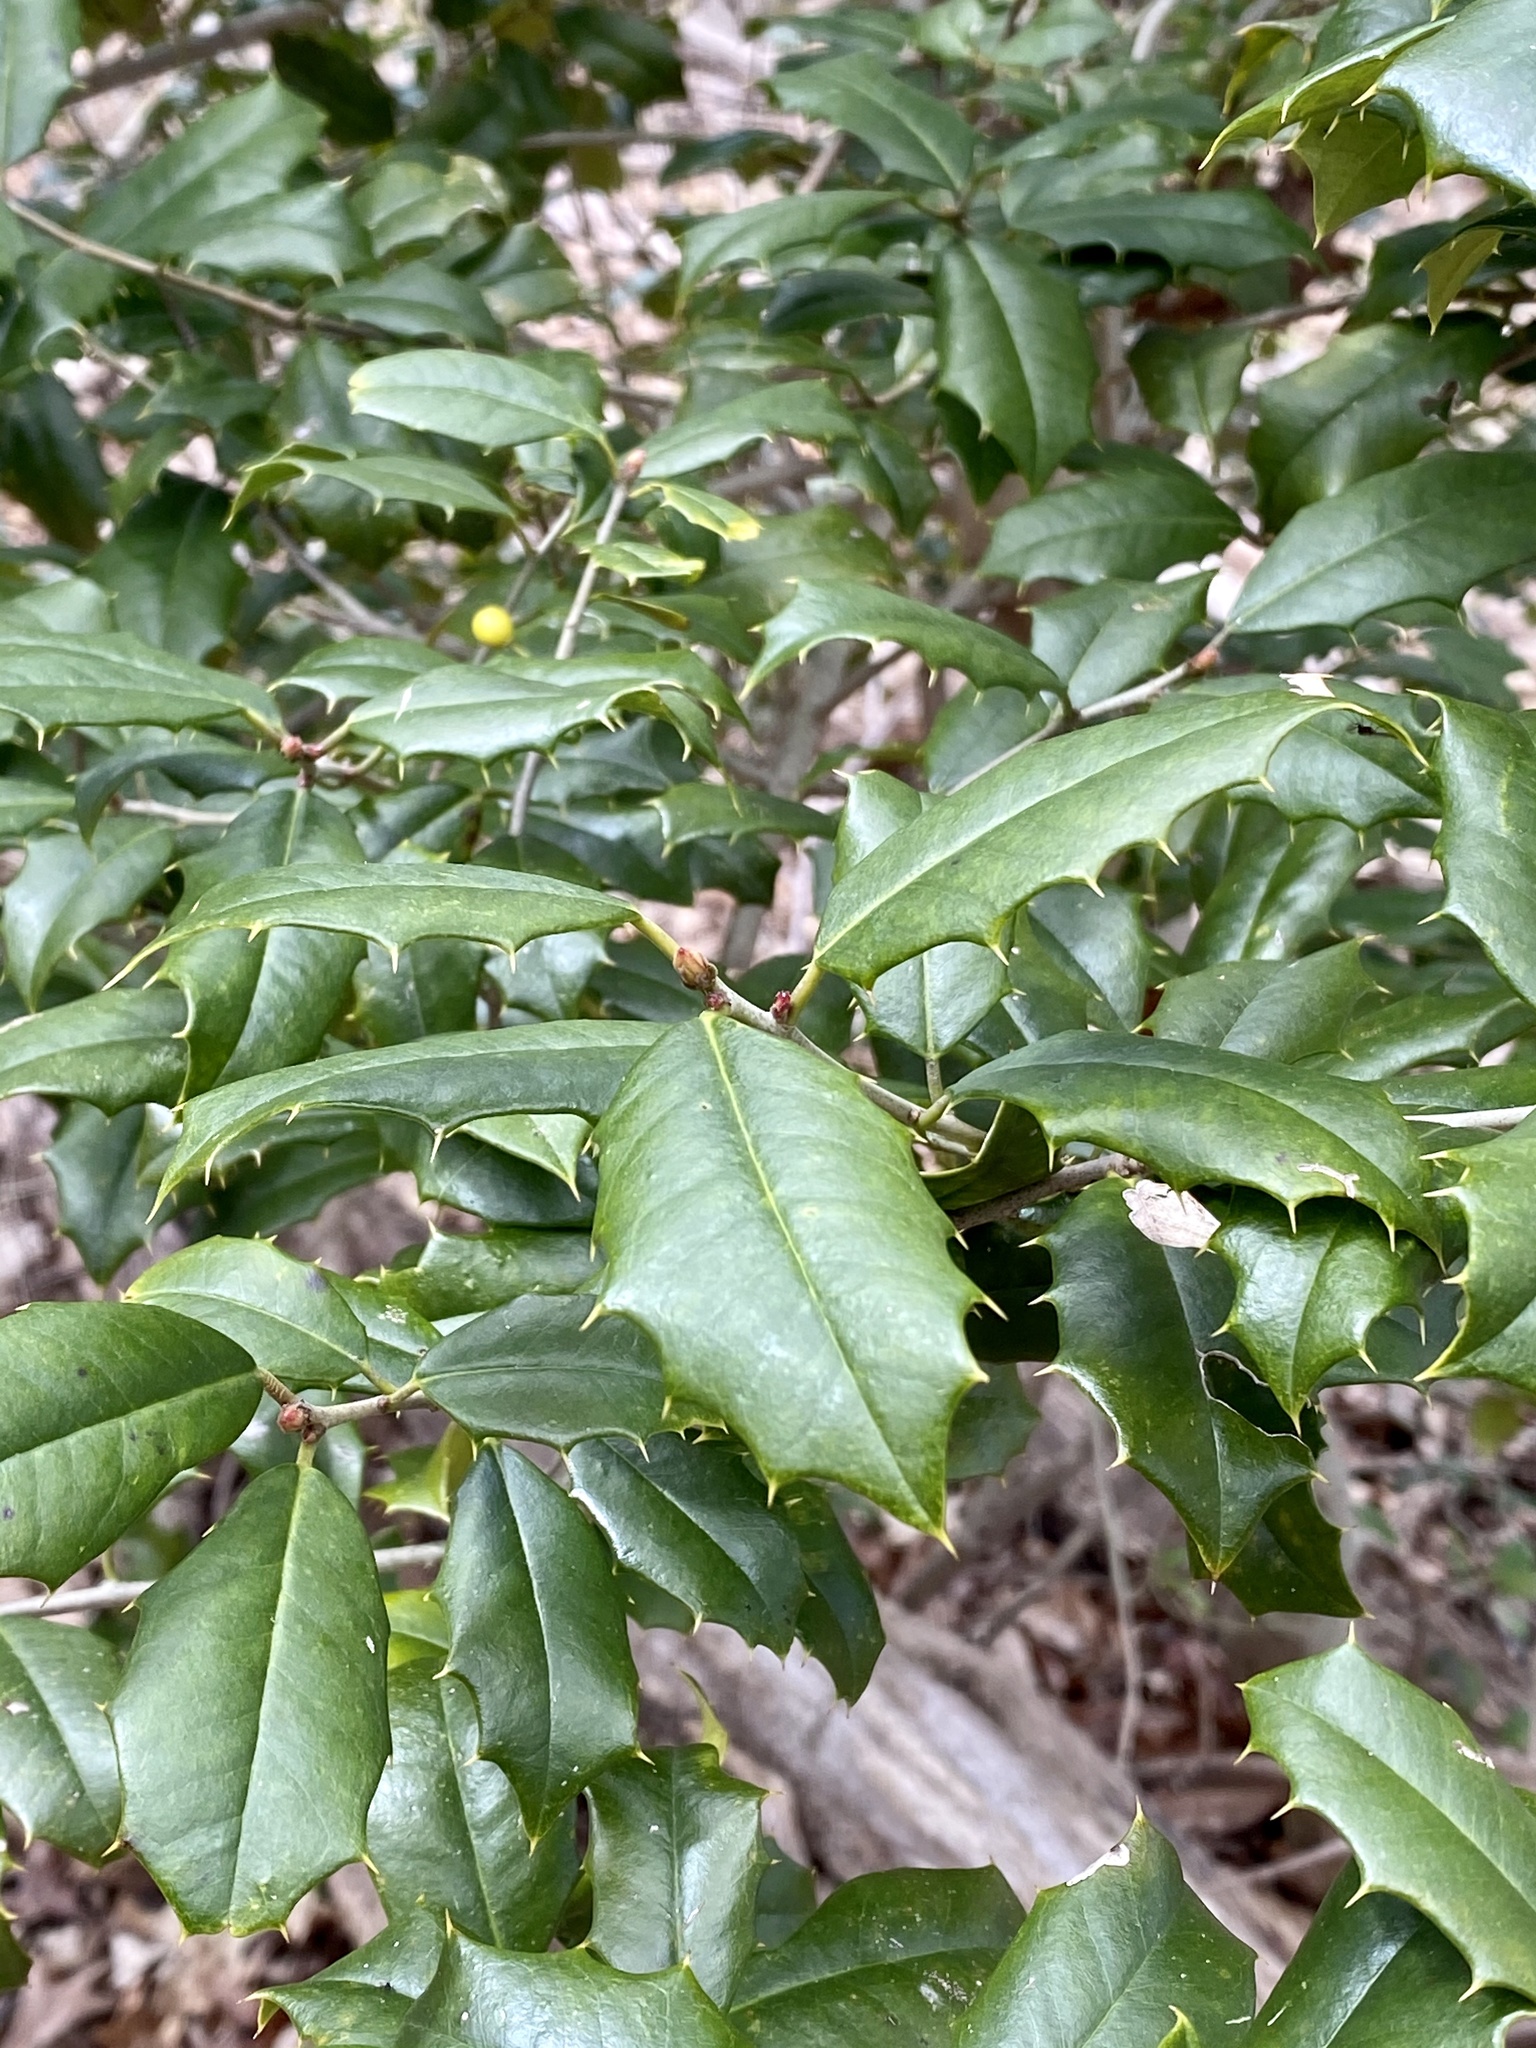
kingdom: Plantae
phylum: Tracheophyta
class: Magnoliopsida
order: Aquifoliales
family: Aquifoliaceae
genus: Ilex
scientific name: Ilex opaca
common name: American holly
